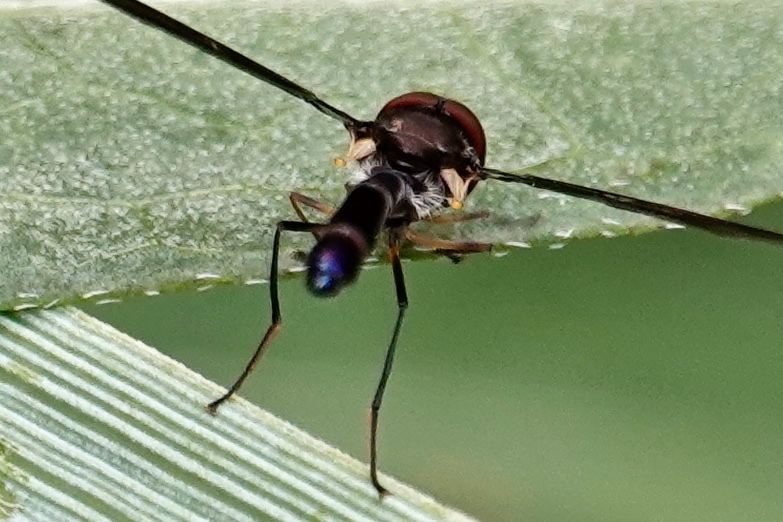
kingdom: Animalia
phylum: Arthropoda
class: Insecta
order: Diptera
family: Syrphidae
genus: Ocyptamus
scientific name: Ocyptamus fuscipennis
